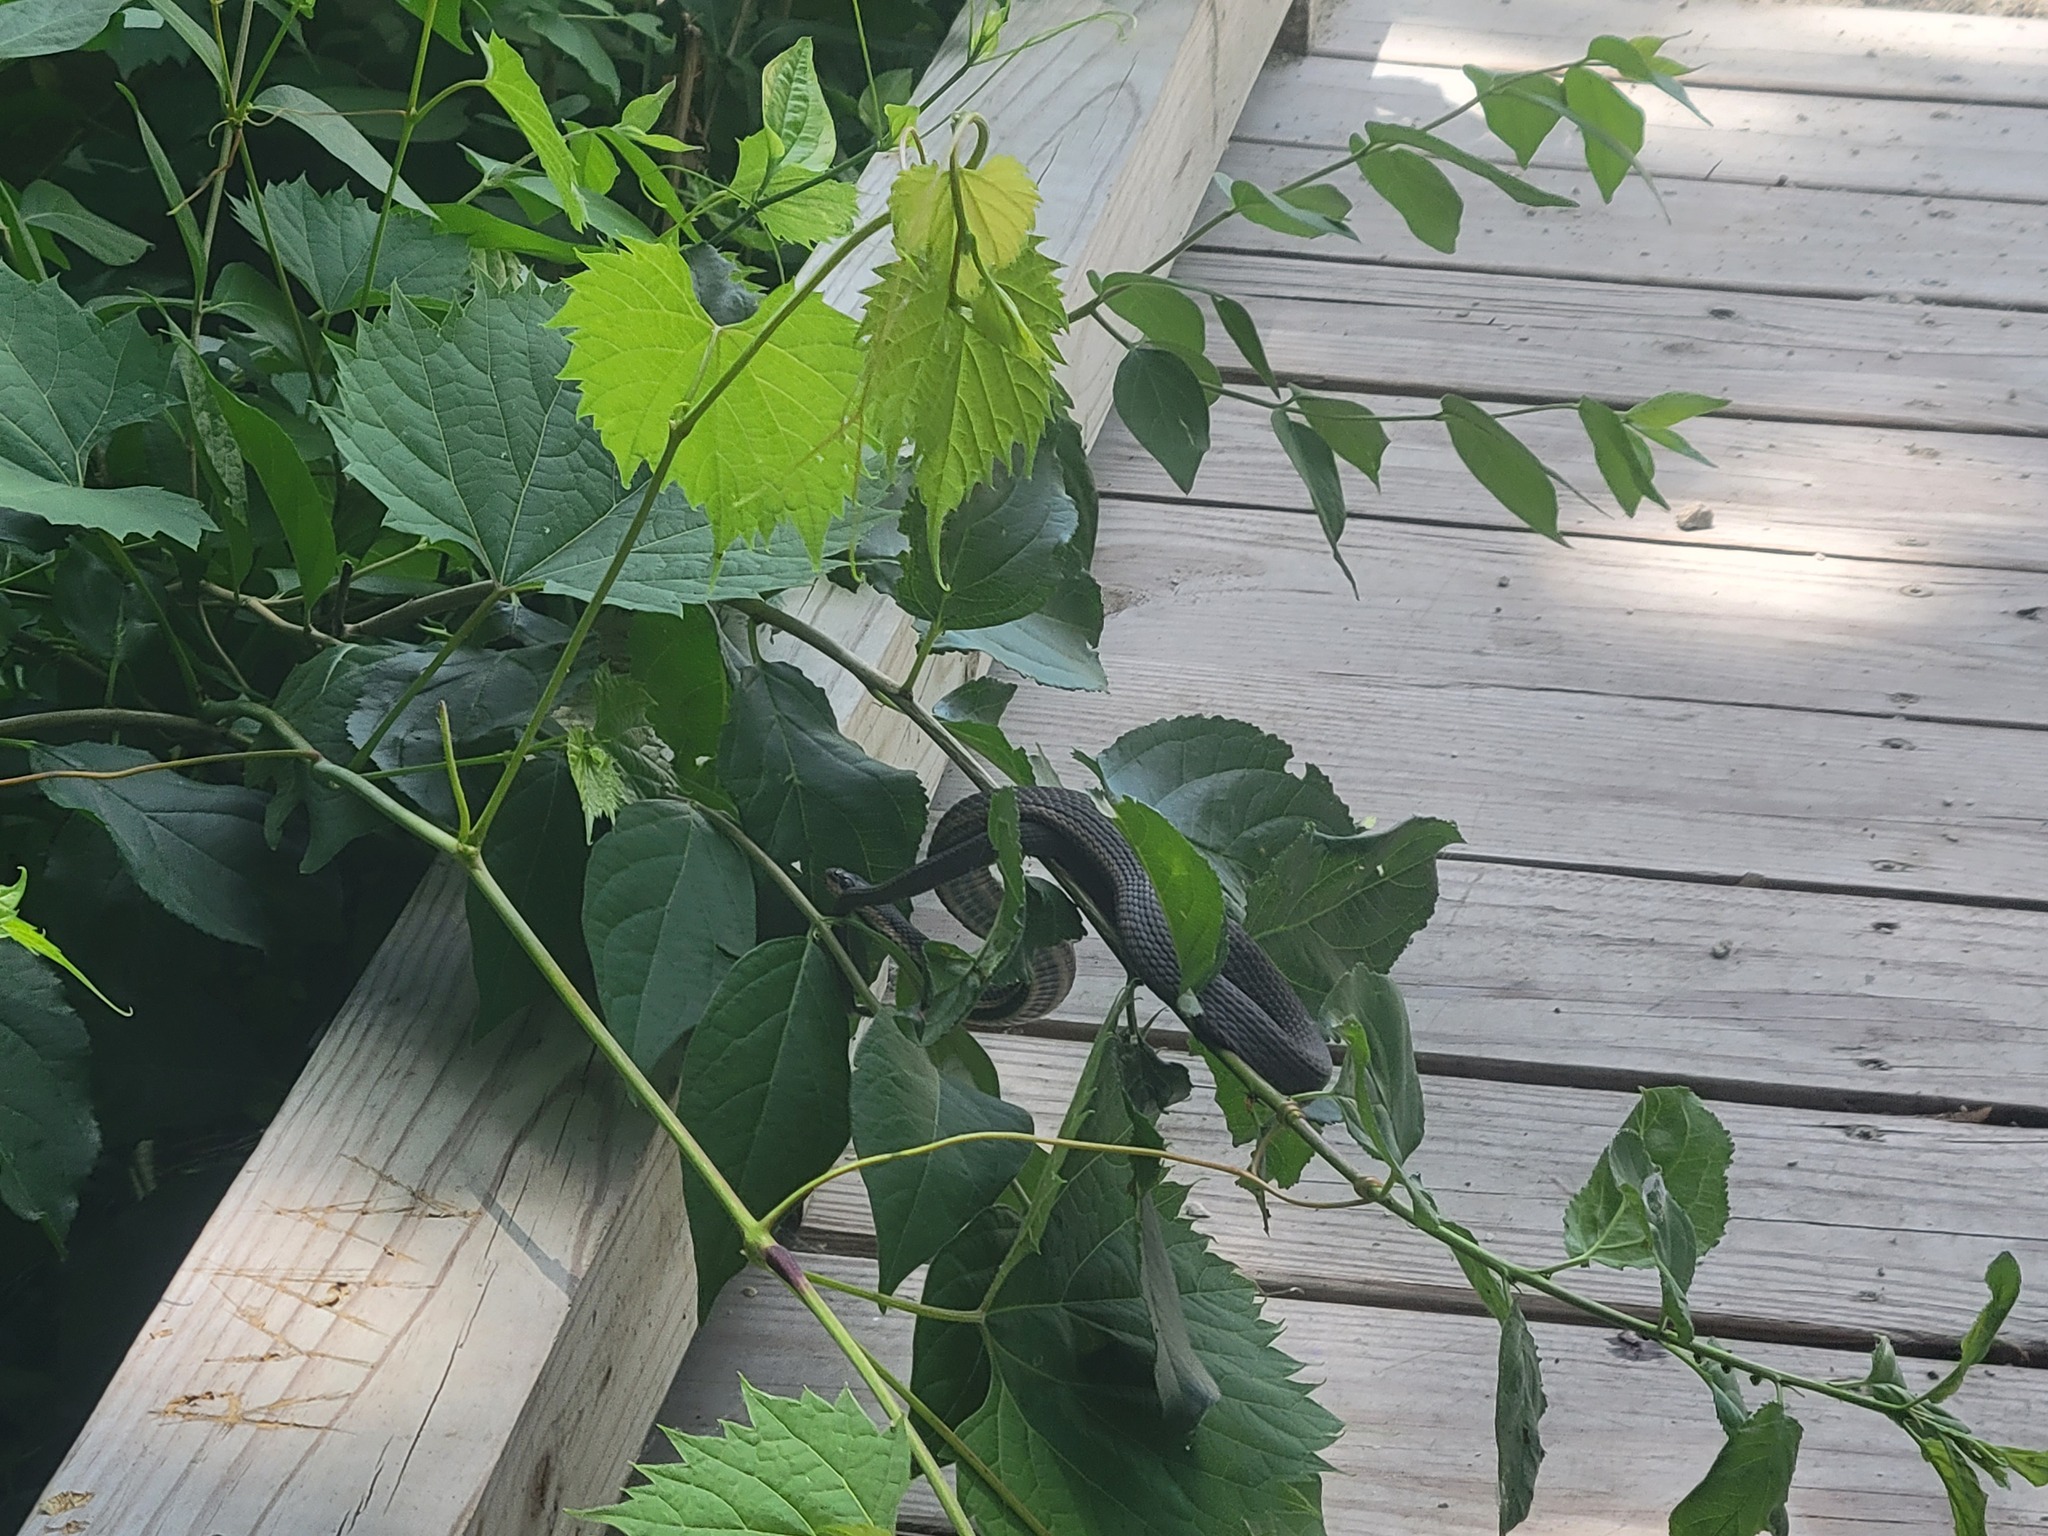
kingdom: Animalia
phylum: Chordata
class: Squamata
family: Colubridae
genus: Regina
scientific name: Regina septemvittata
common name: Queen snake
